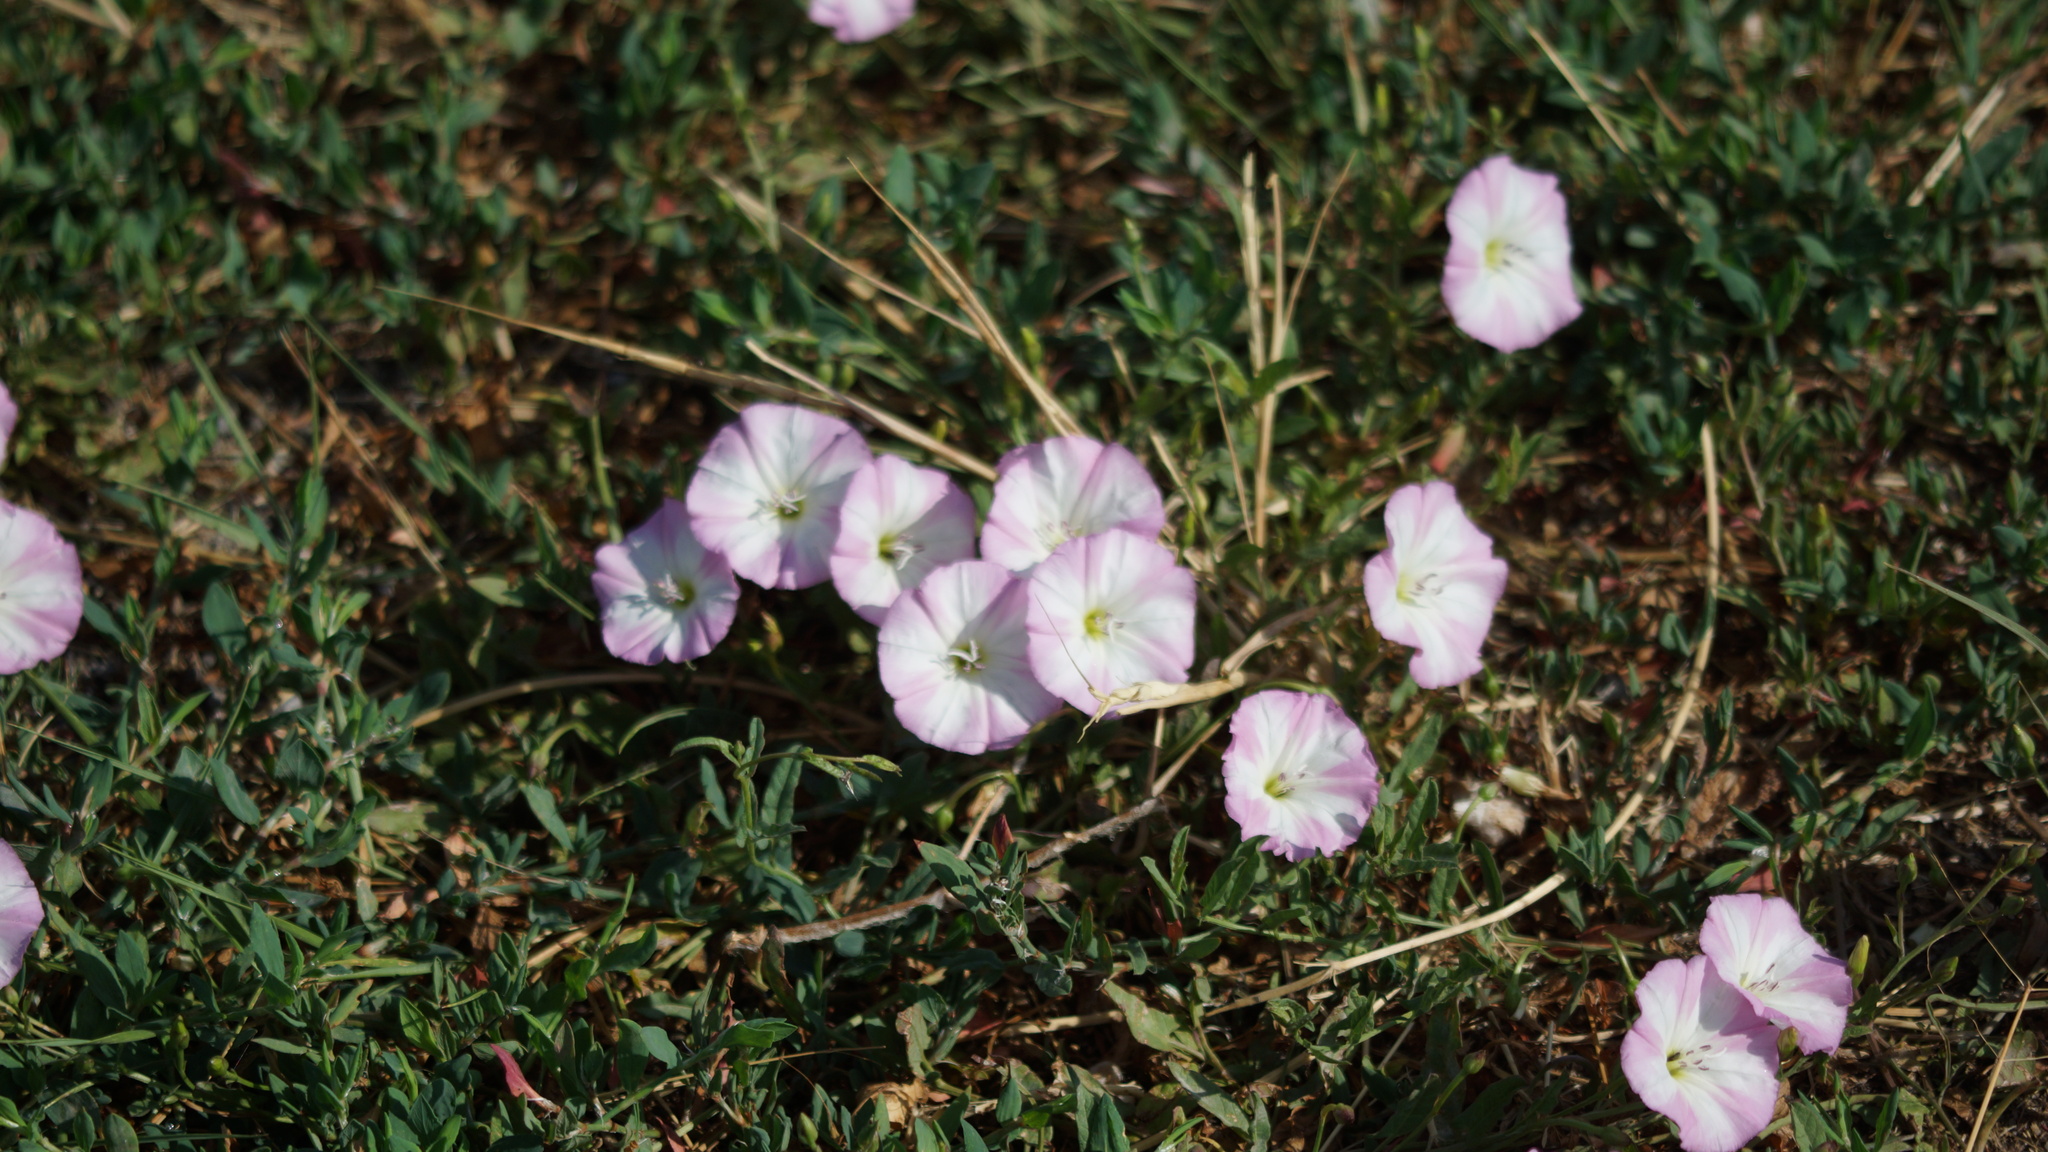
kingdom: Plantae
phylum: Tracheophyta
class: Magnoliopsida
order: Solanales
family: Convolvulaceae
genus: Convolvulus
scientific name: Convolvulus arvensis
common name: Field bindweed
